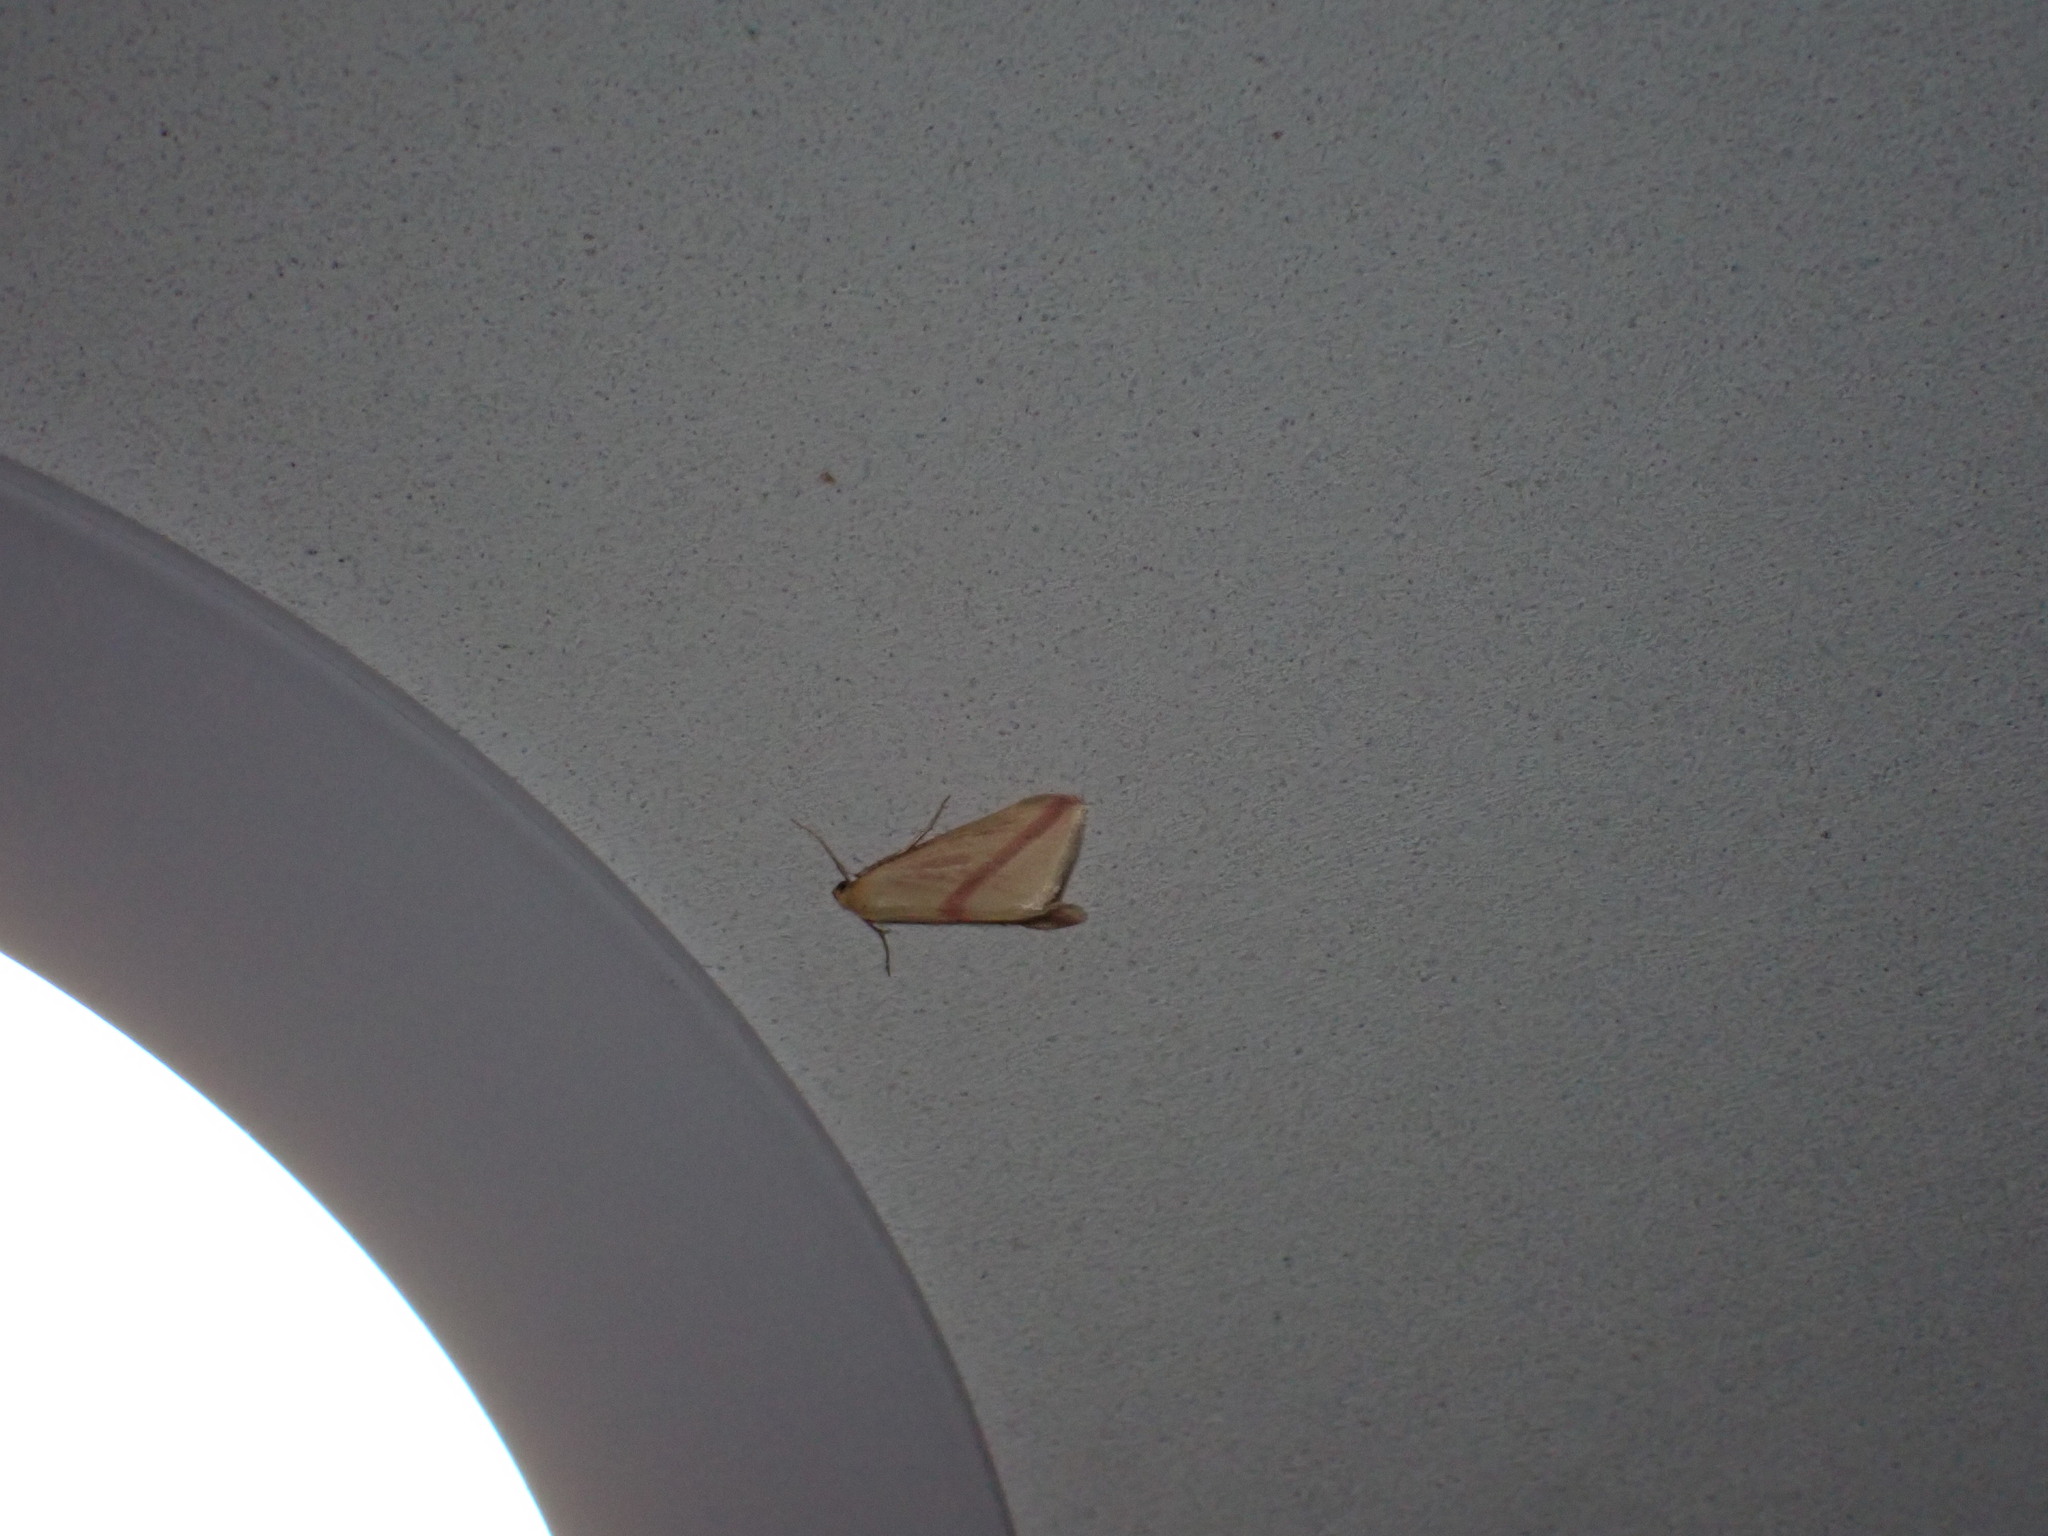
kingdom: Animalia
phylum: Arthropoda
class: Insecta
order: Lepidoptera
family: Geometridae
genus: Rhodometra
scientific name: Rhodometra sacraria
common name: Vestal
